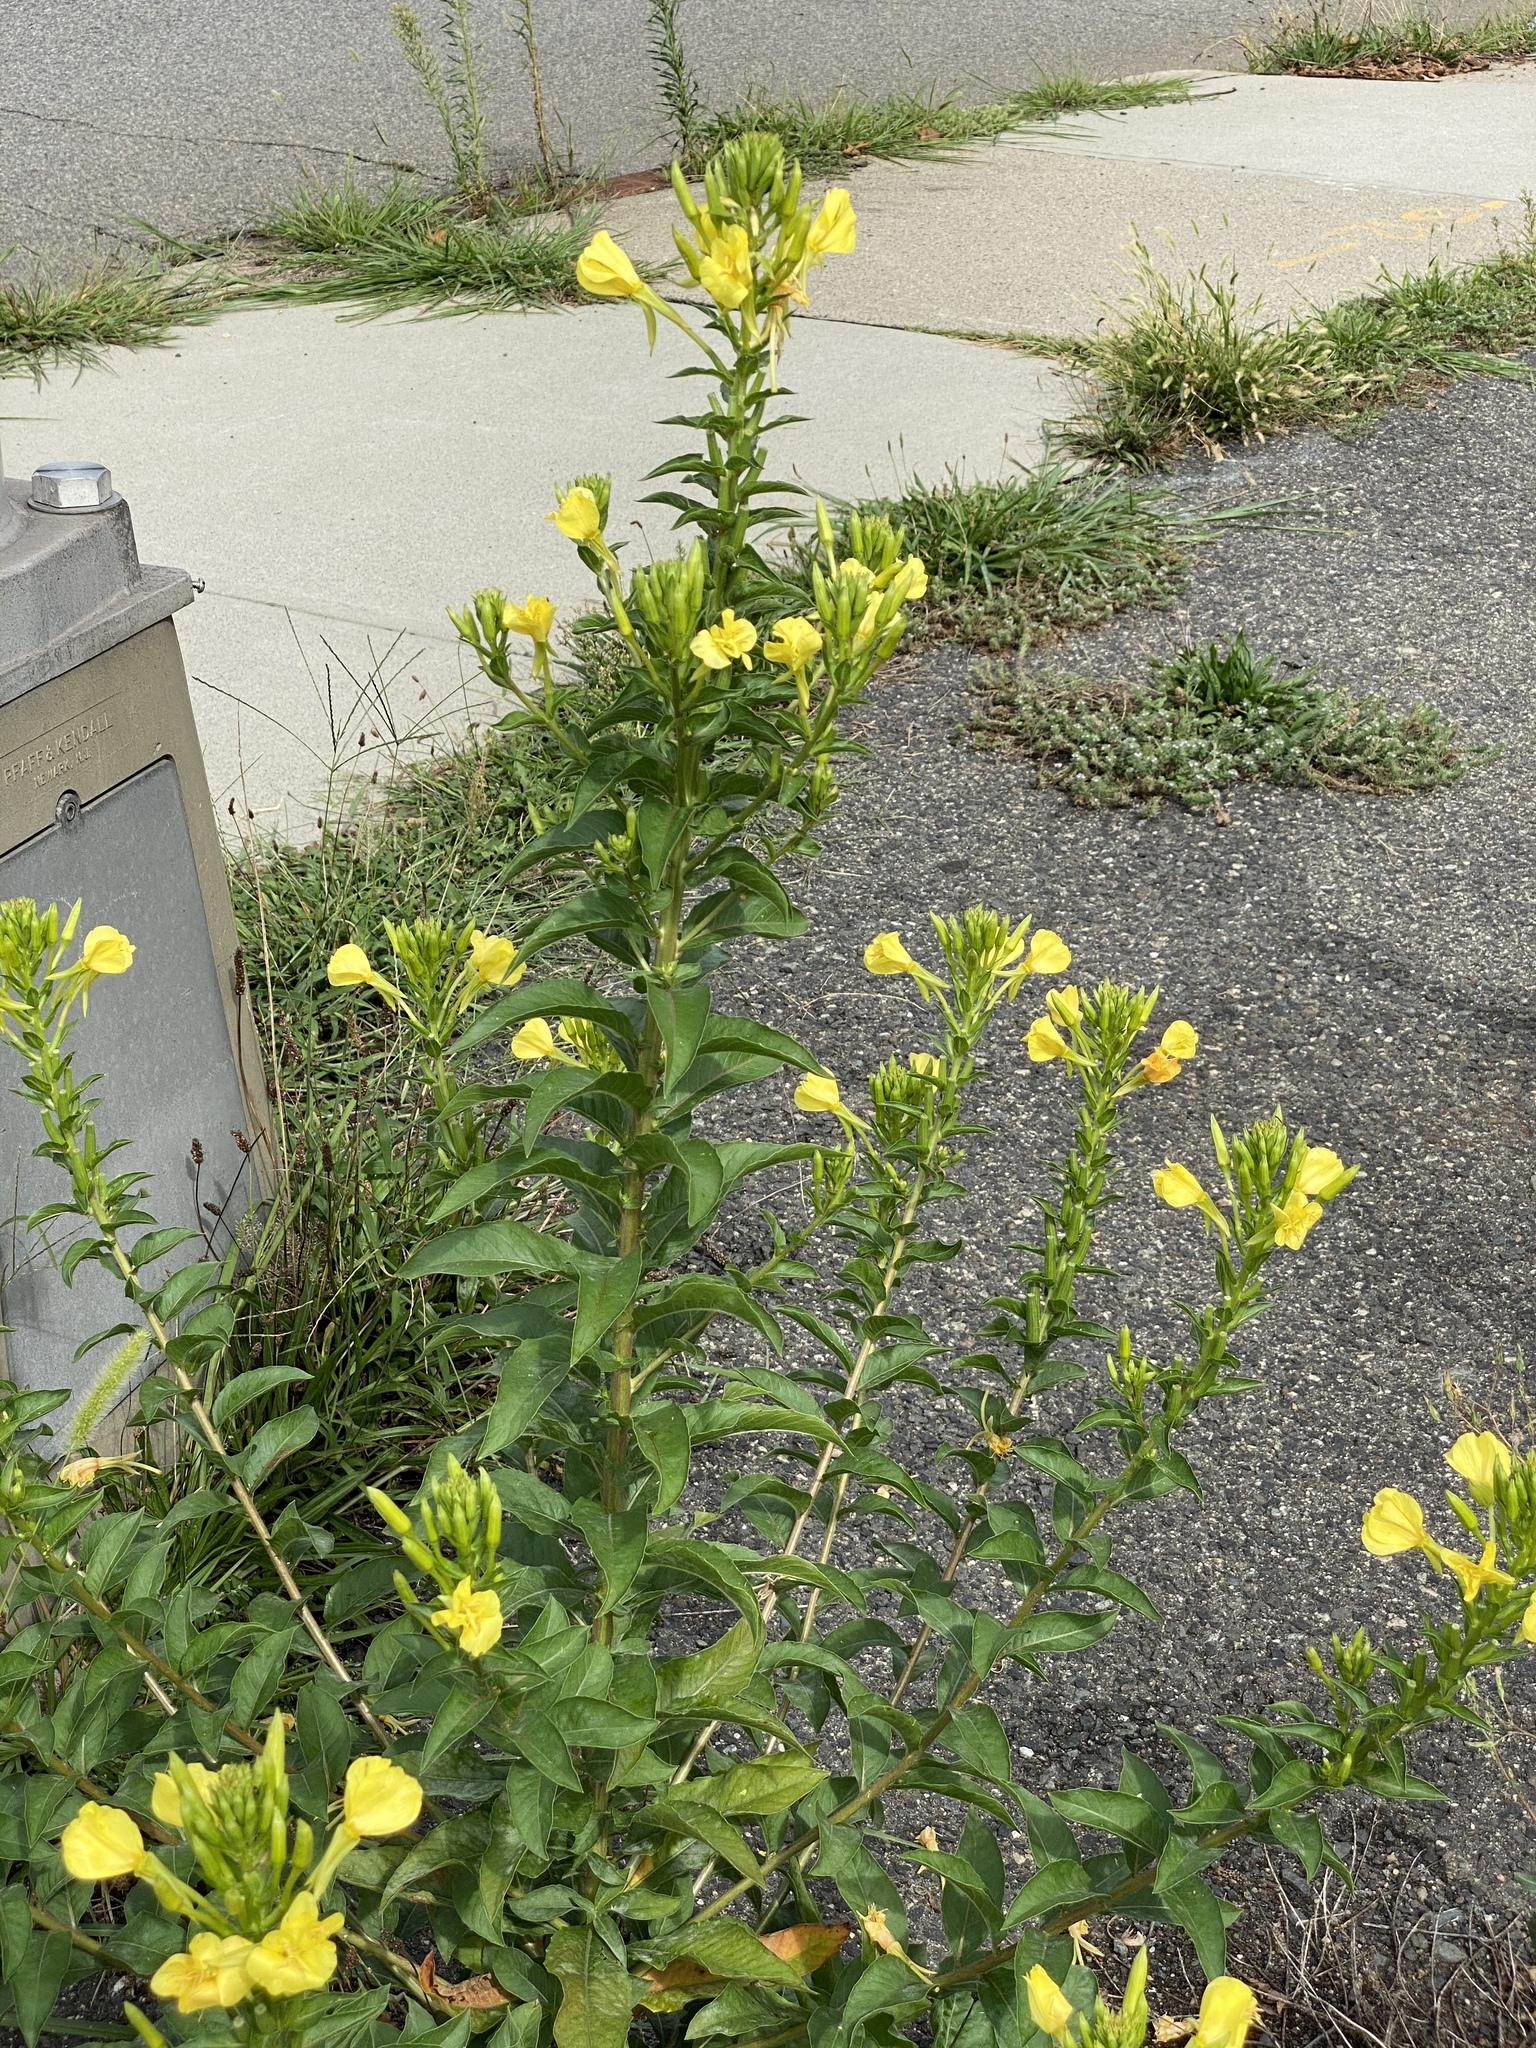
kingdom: Plantae
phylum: Tracheophyta
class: Magnoliopsida
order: Myrtales
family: Onagraceae
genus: Oenothera
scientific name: Oenothera biennis
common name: Common evening-primrose
